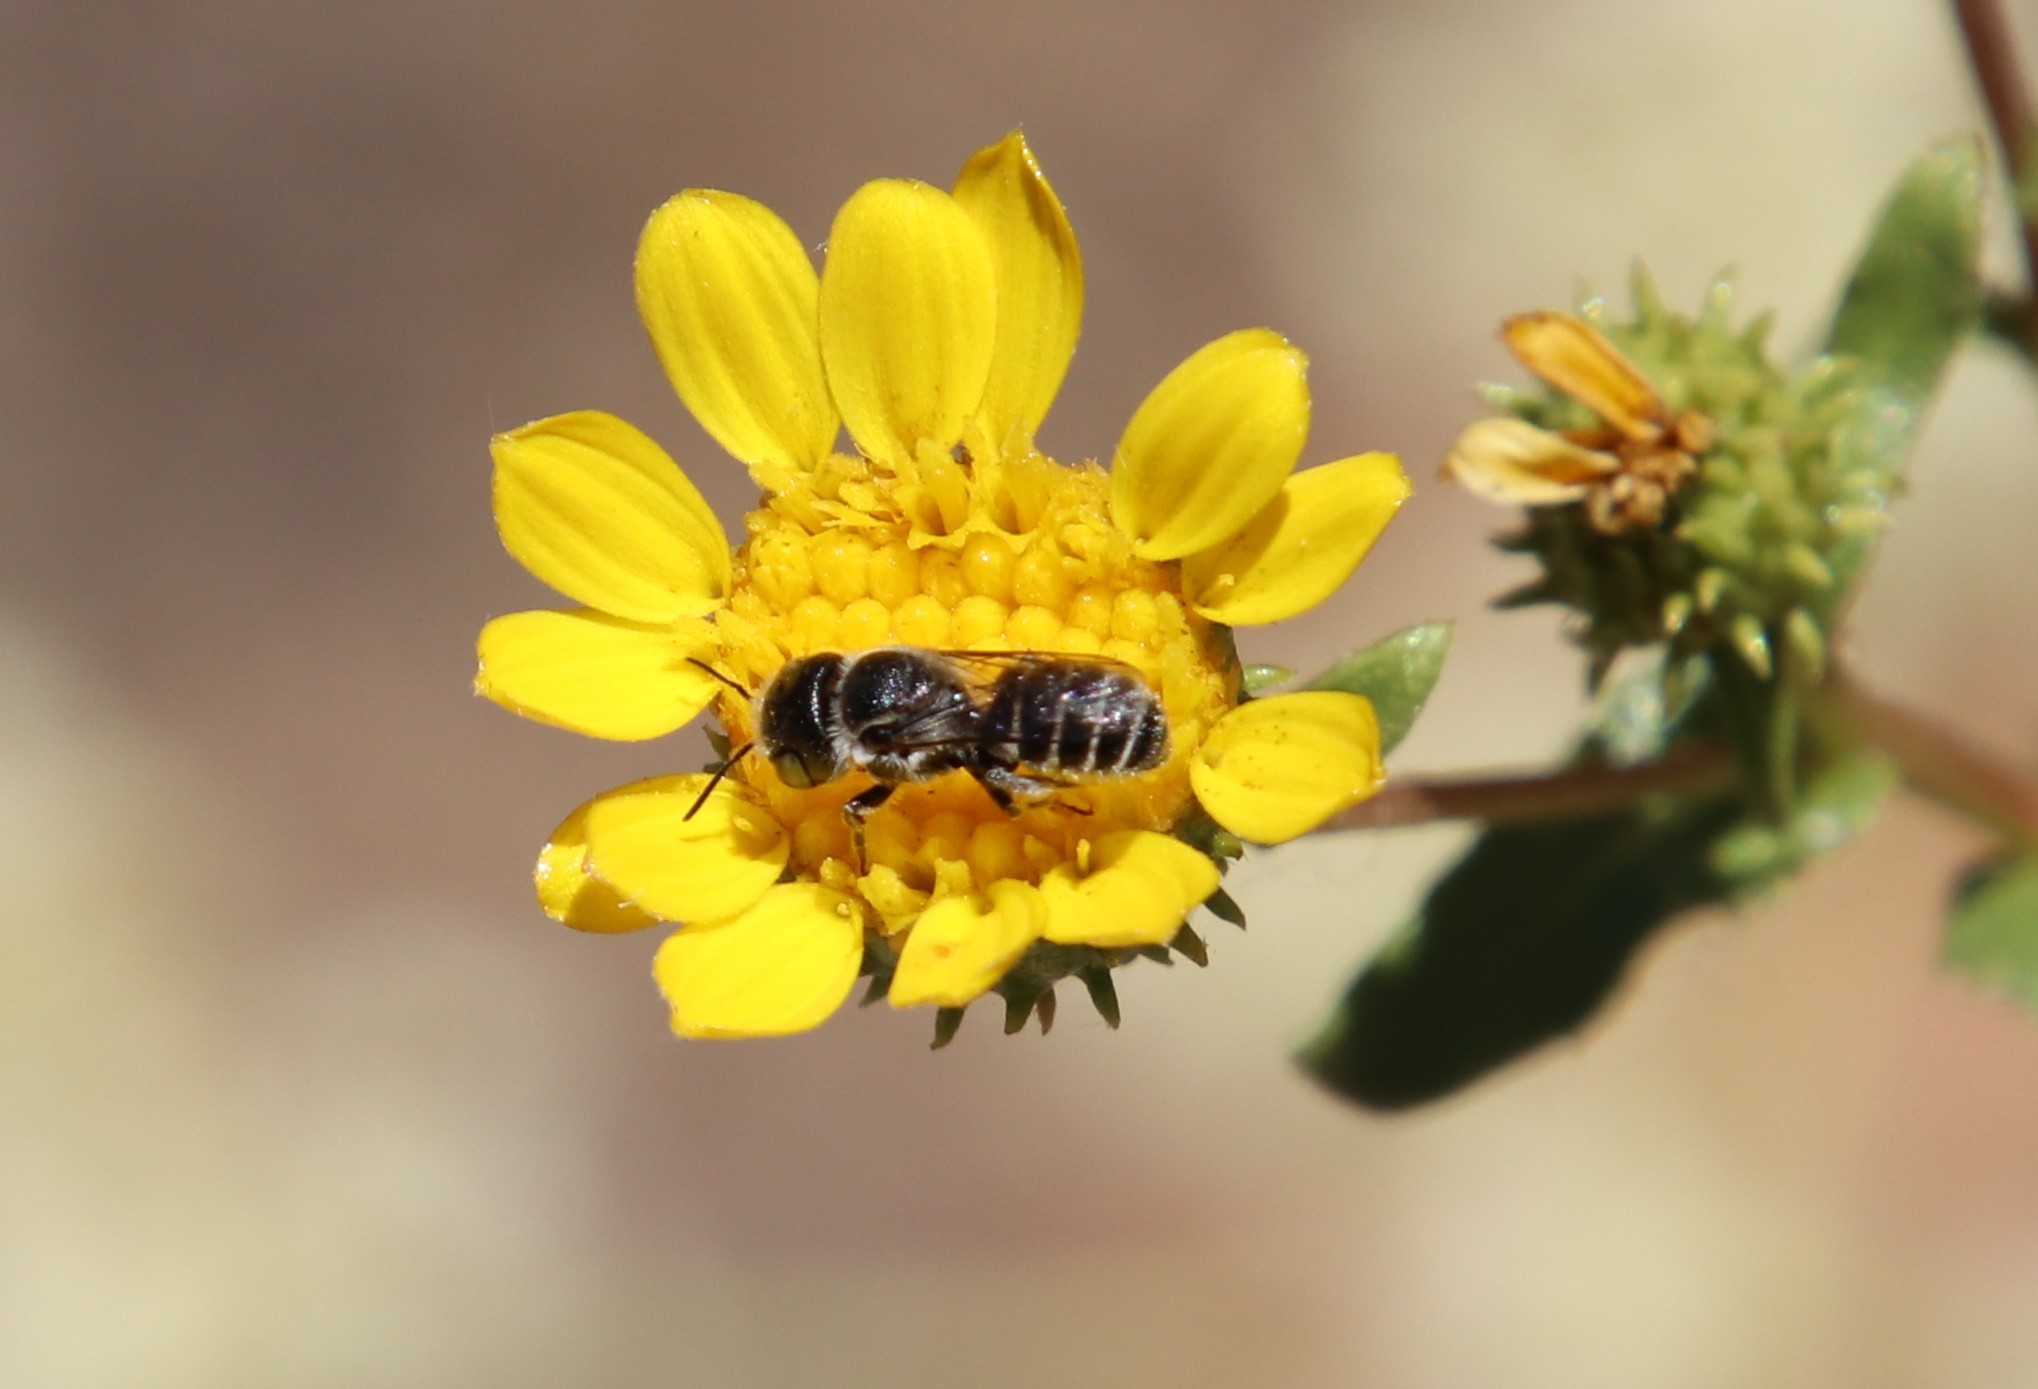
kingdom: Animalia
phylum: Arthropoda
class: Insecta
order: Hymenoptera
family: Megachilidae
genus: Ashmeadiella
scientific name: Ashmeadiella bucconis
